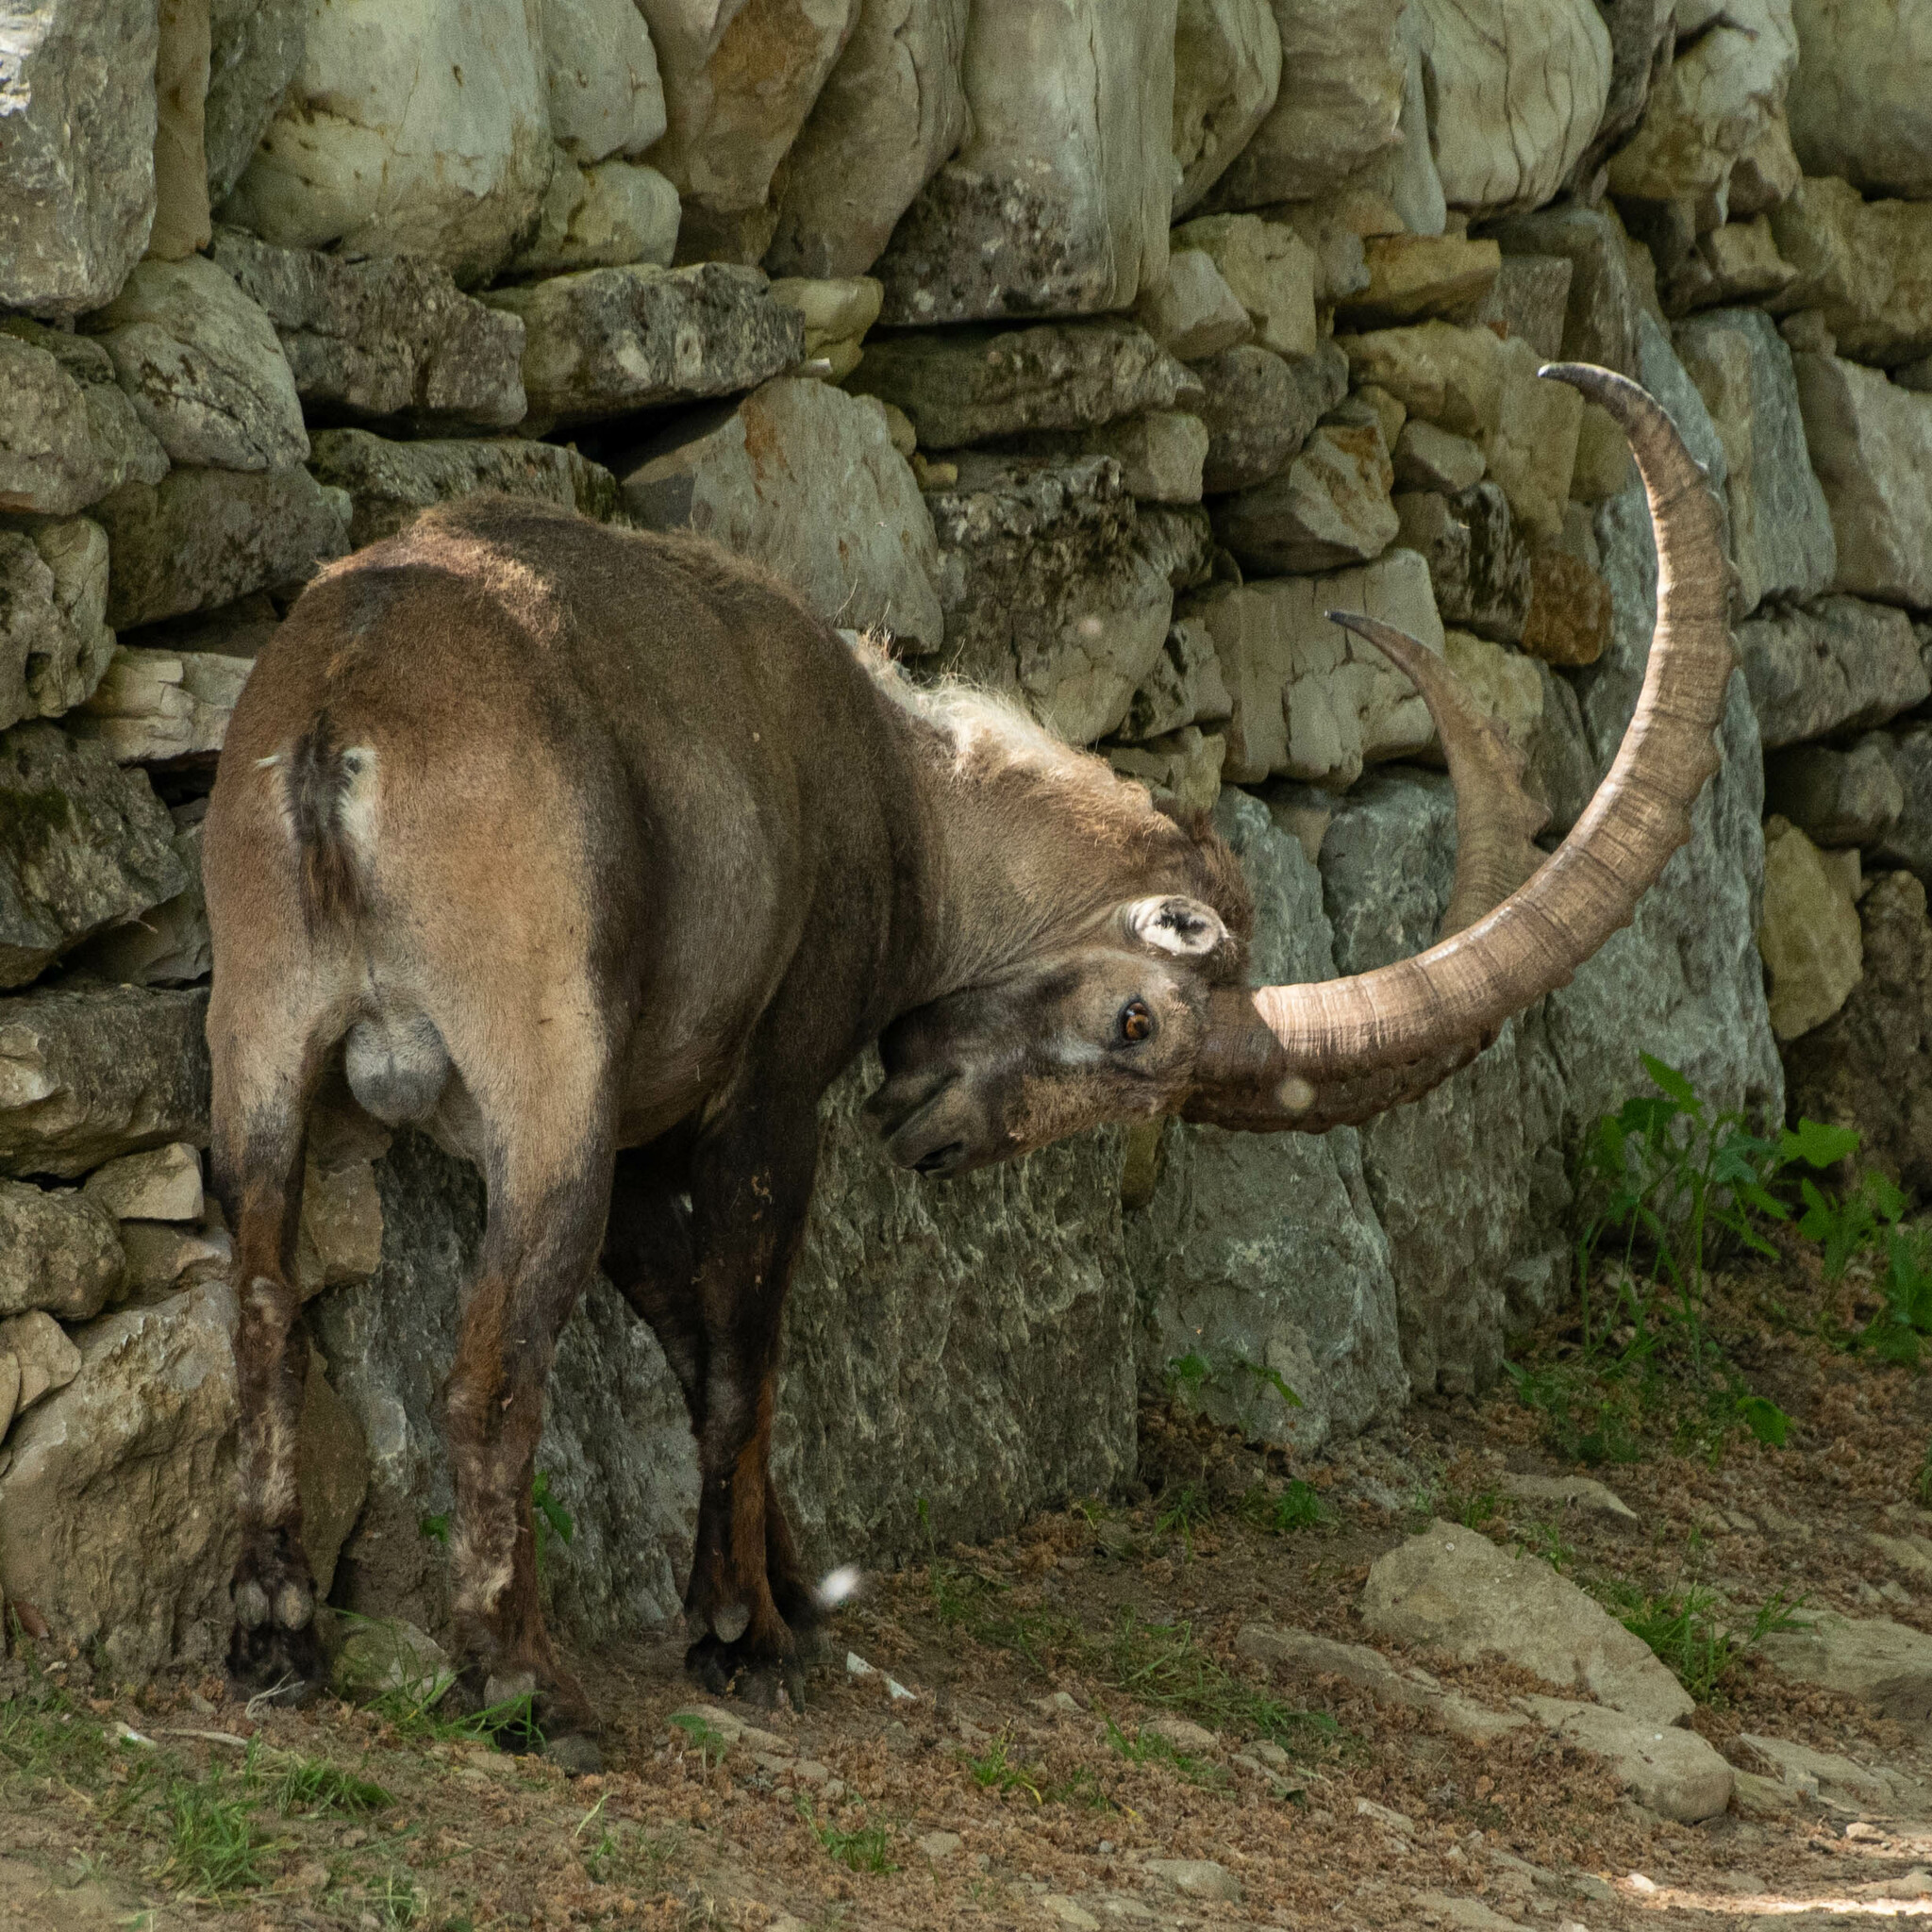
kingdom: Animalia
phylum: Chordata
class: Mammalia
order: Artiodactyla
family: Bovidae
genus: Capra
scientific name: Capra ibex
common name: Alpine ibex
